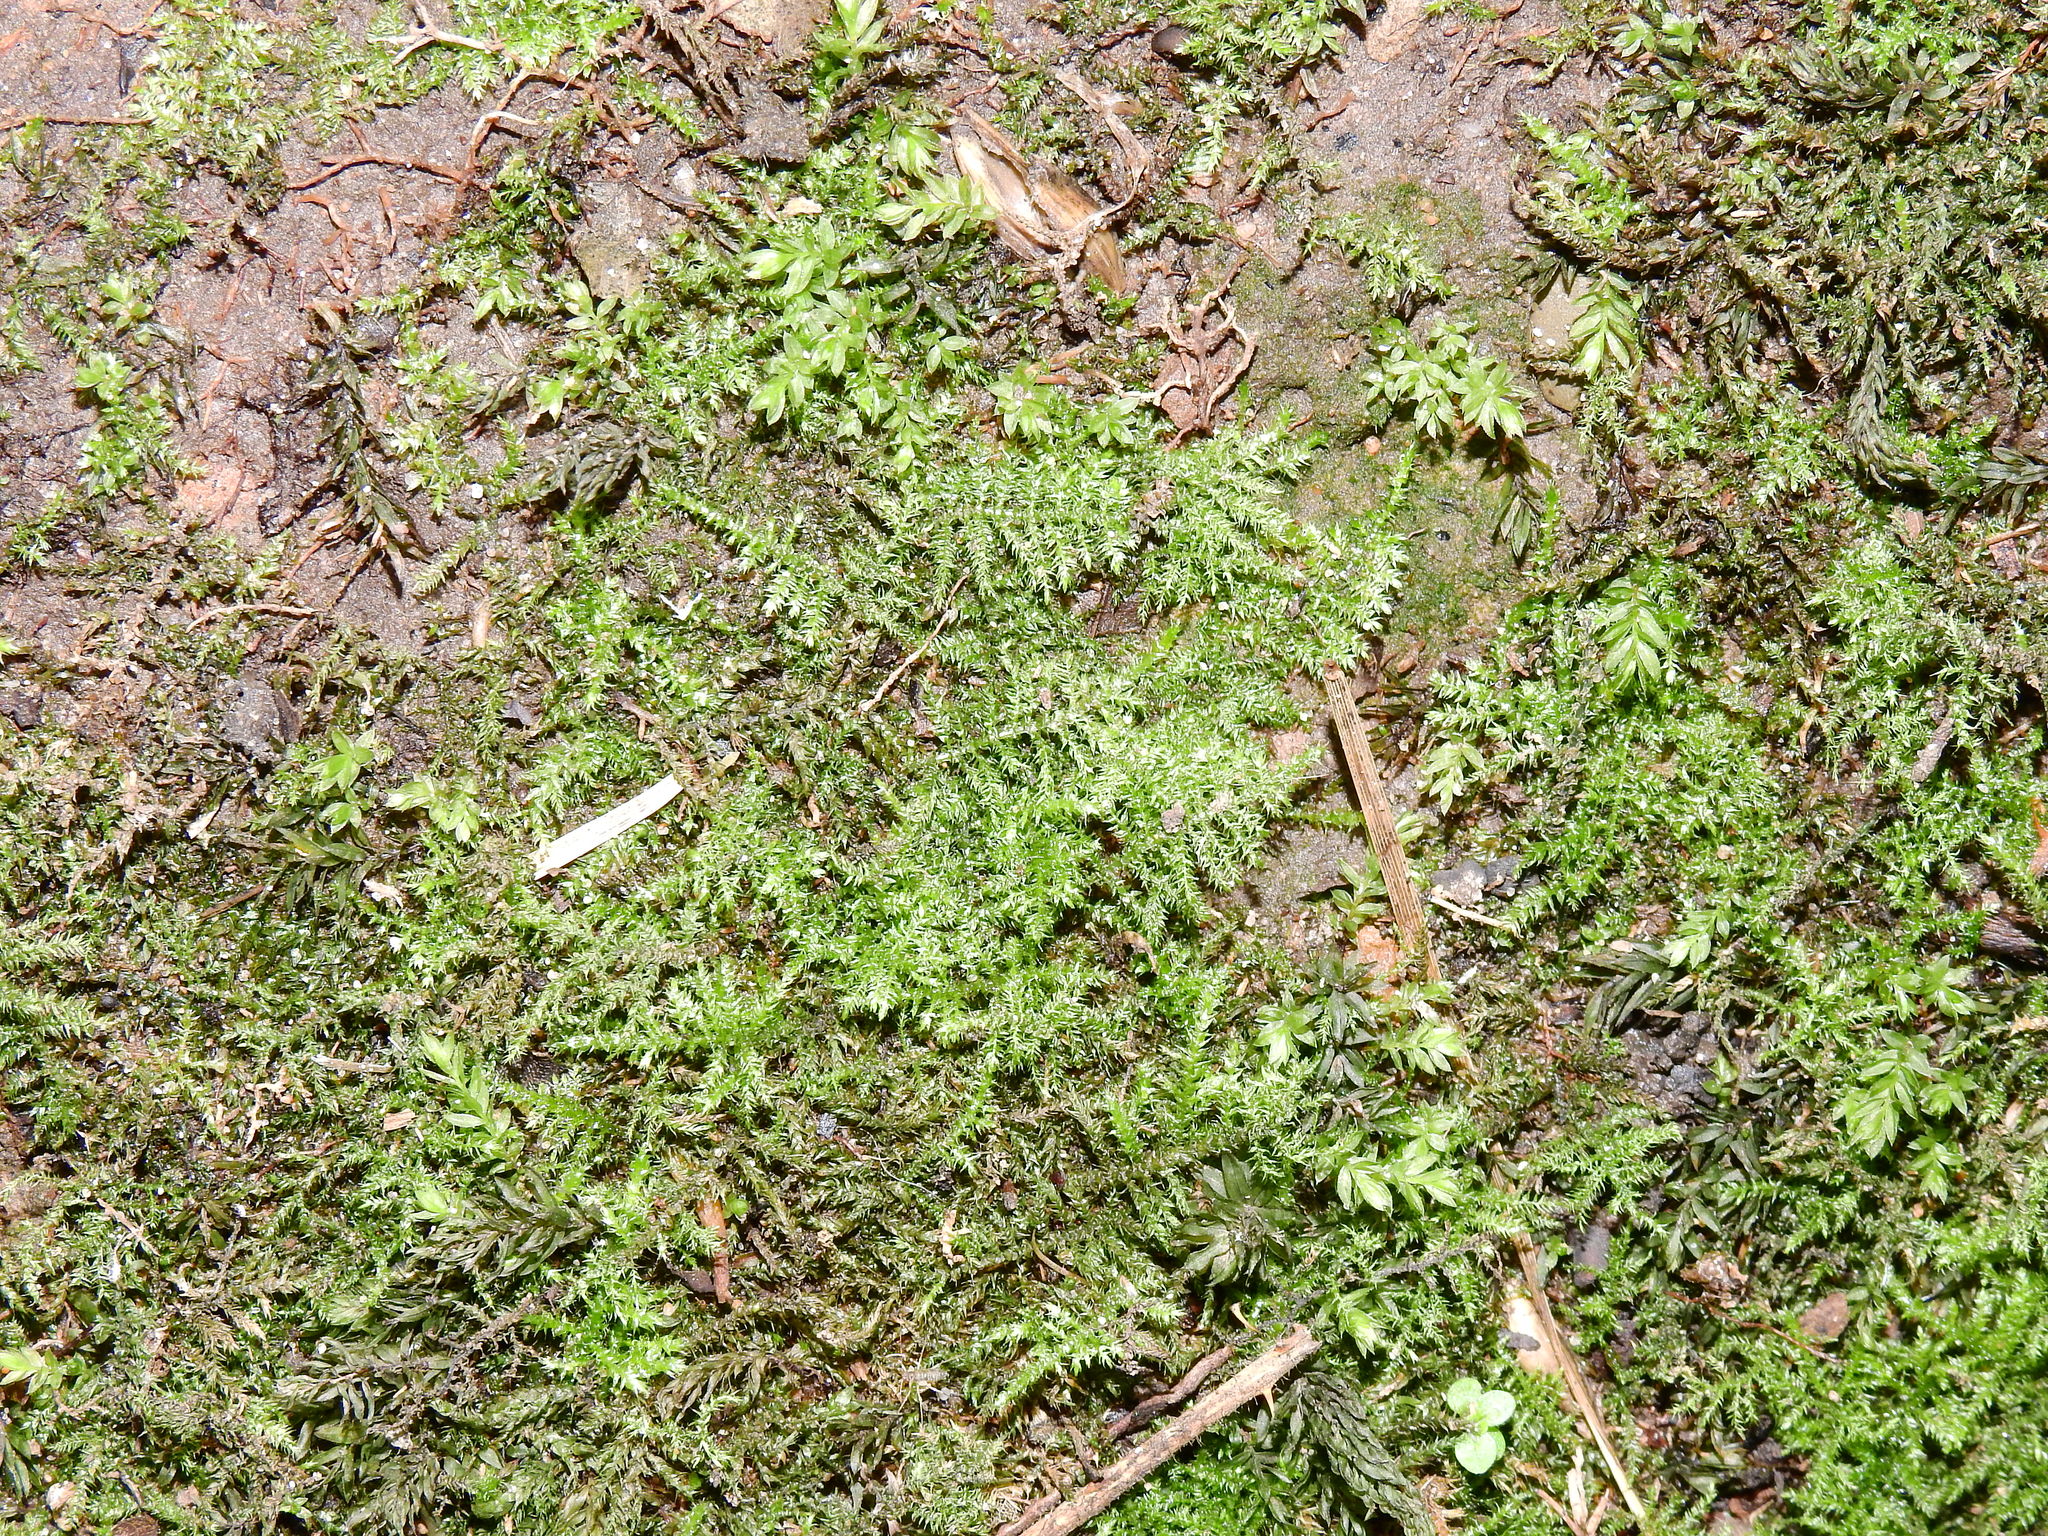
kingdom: Plantae
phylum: Bryophyta
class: Bryopsida
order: Hypnales
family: Brachytheciaceae
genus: Kindbergia
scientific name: Kindbergia praelonga
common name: Slender beaked moss
